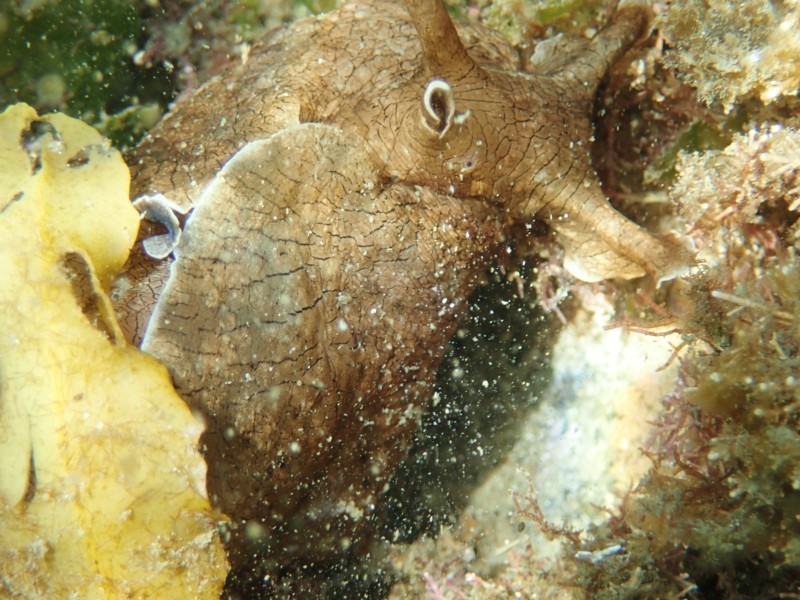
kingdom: Animalia
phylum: Mollusca
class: Gastropoda
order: Aplysiida
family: Aplysiidae
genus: Aplysia
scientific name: Aplysia sydneyensis
